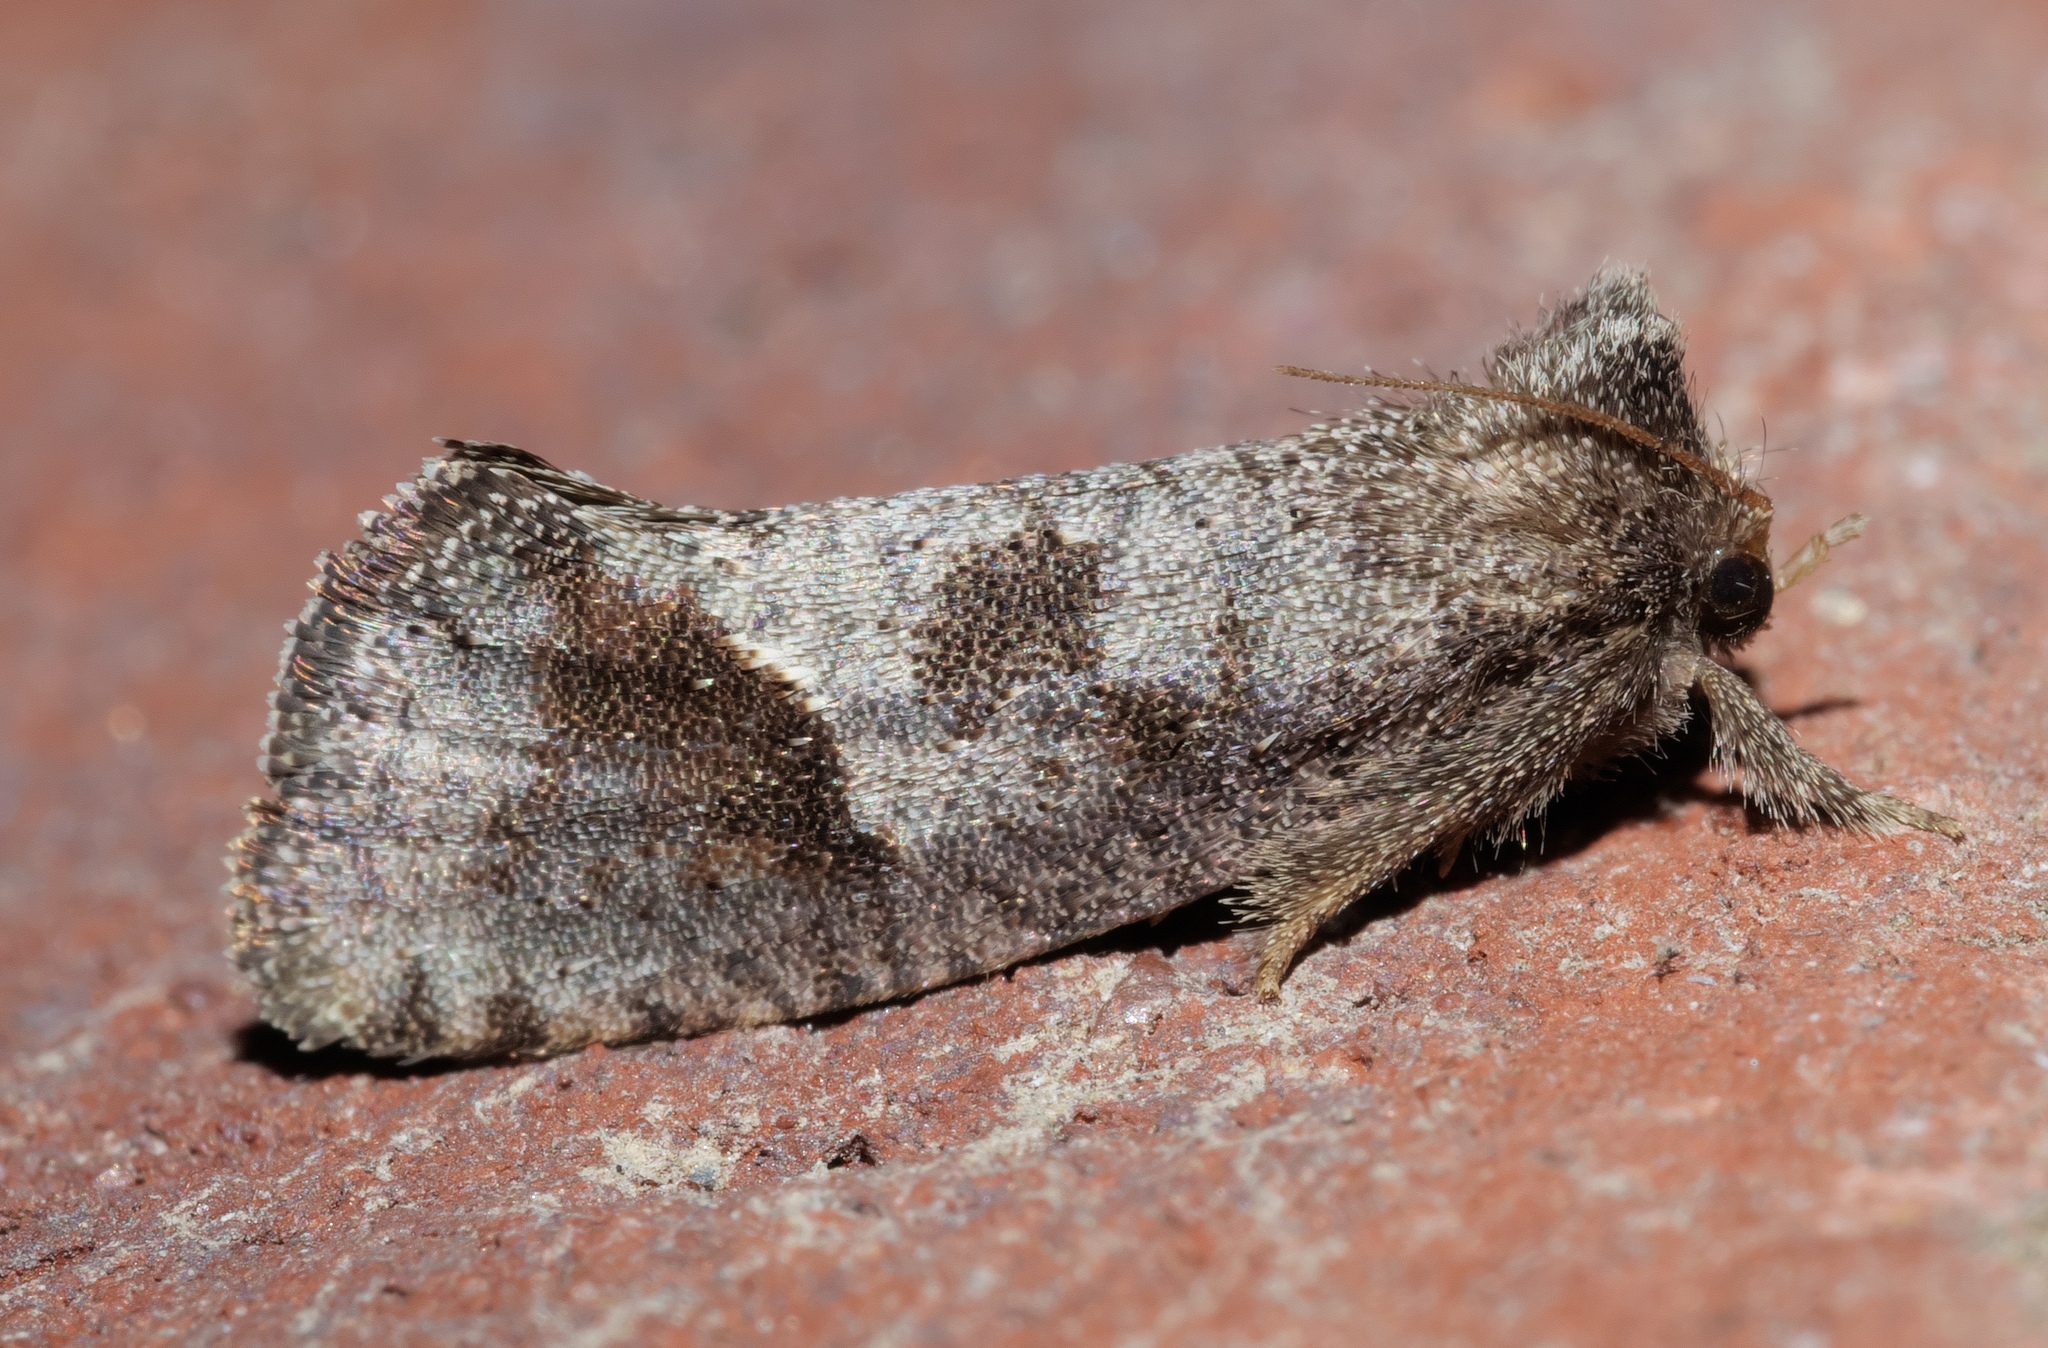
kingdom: Animalia
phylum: Arthropoda
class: Insecta
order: Lepidoptera
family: Tineidae
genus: Acrolophus
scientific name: Acrolophus texanella
